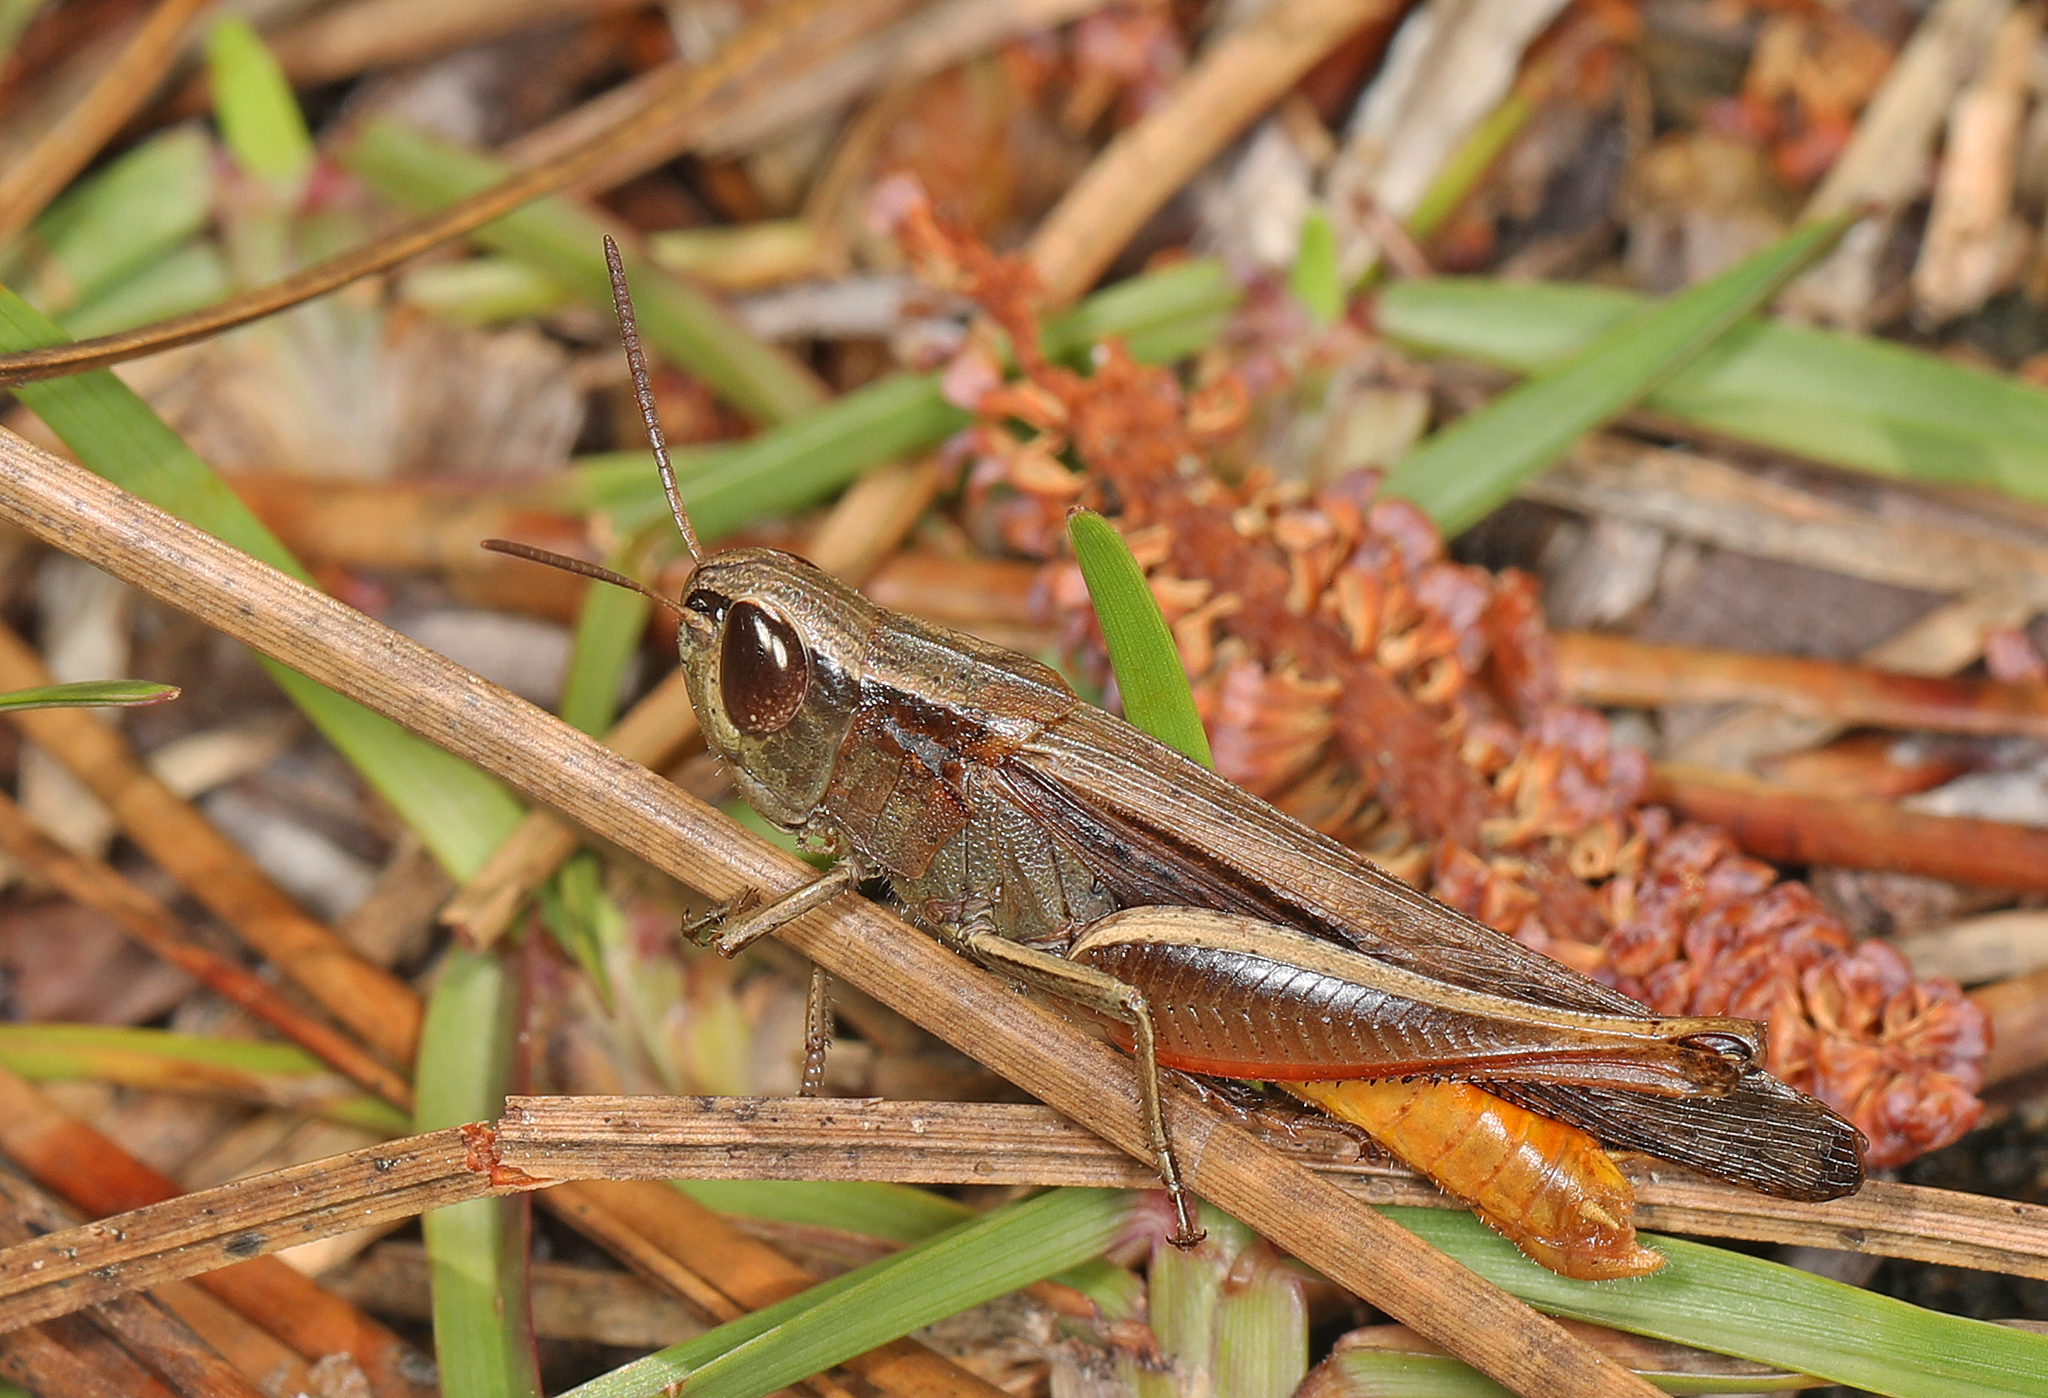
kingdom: Animalia
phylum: Arthropoda
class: Insecta
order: Orthoptera
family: Acrididae
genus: Amblytropidia
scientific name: Amblytropidia mysteca
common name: Brown winter grasshopper
